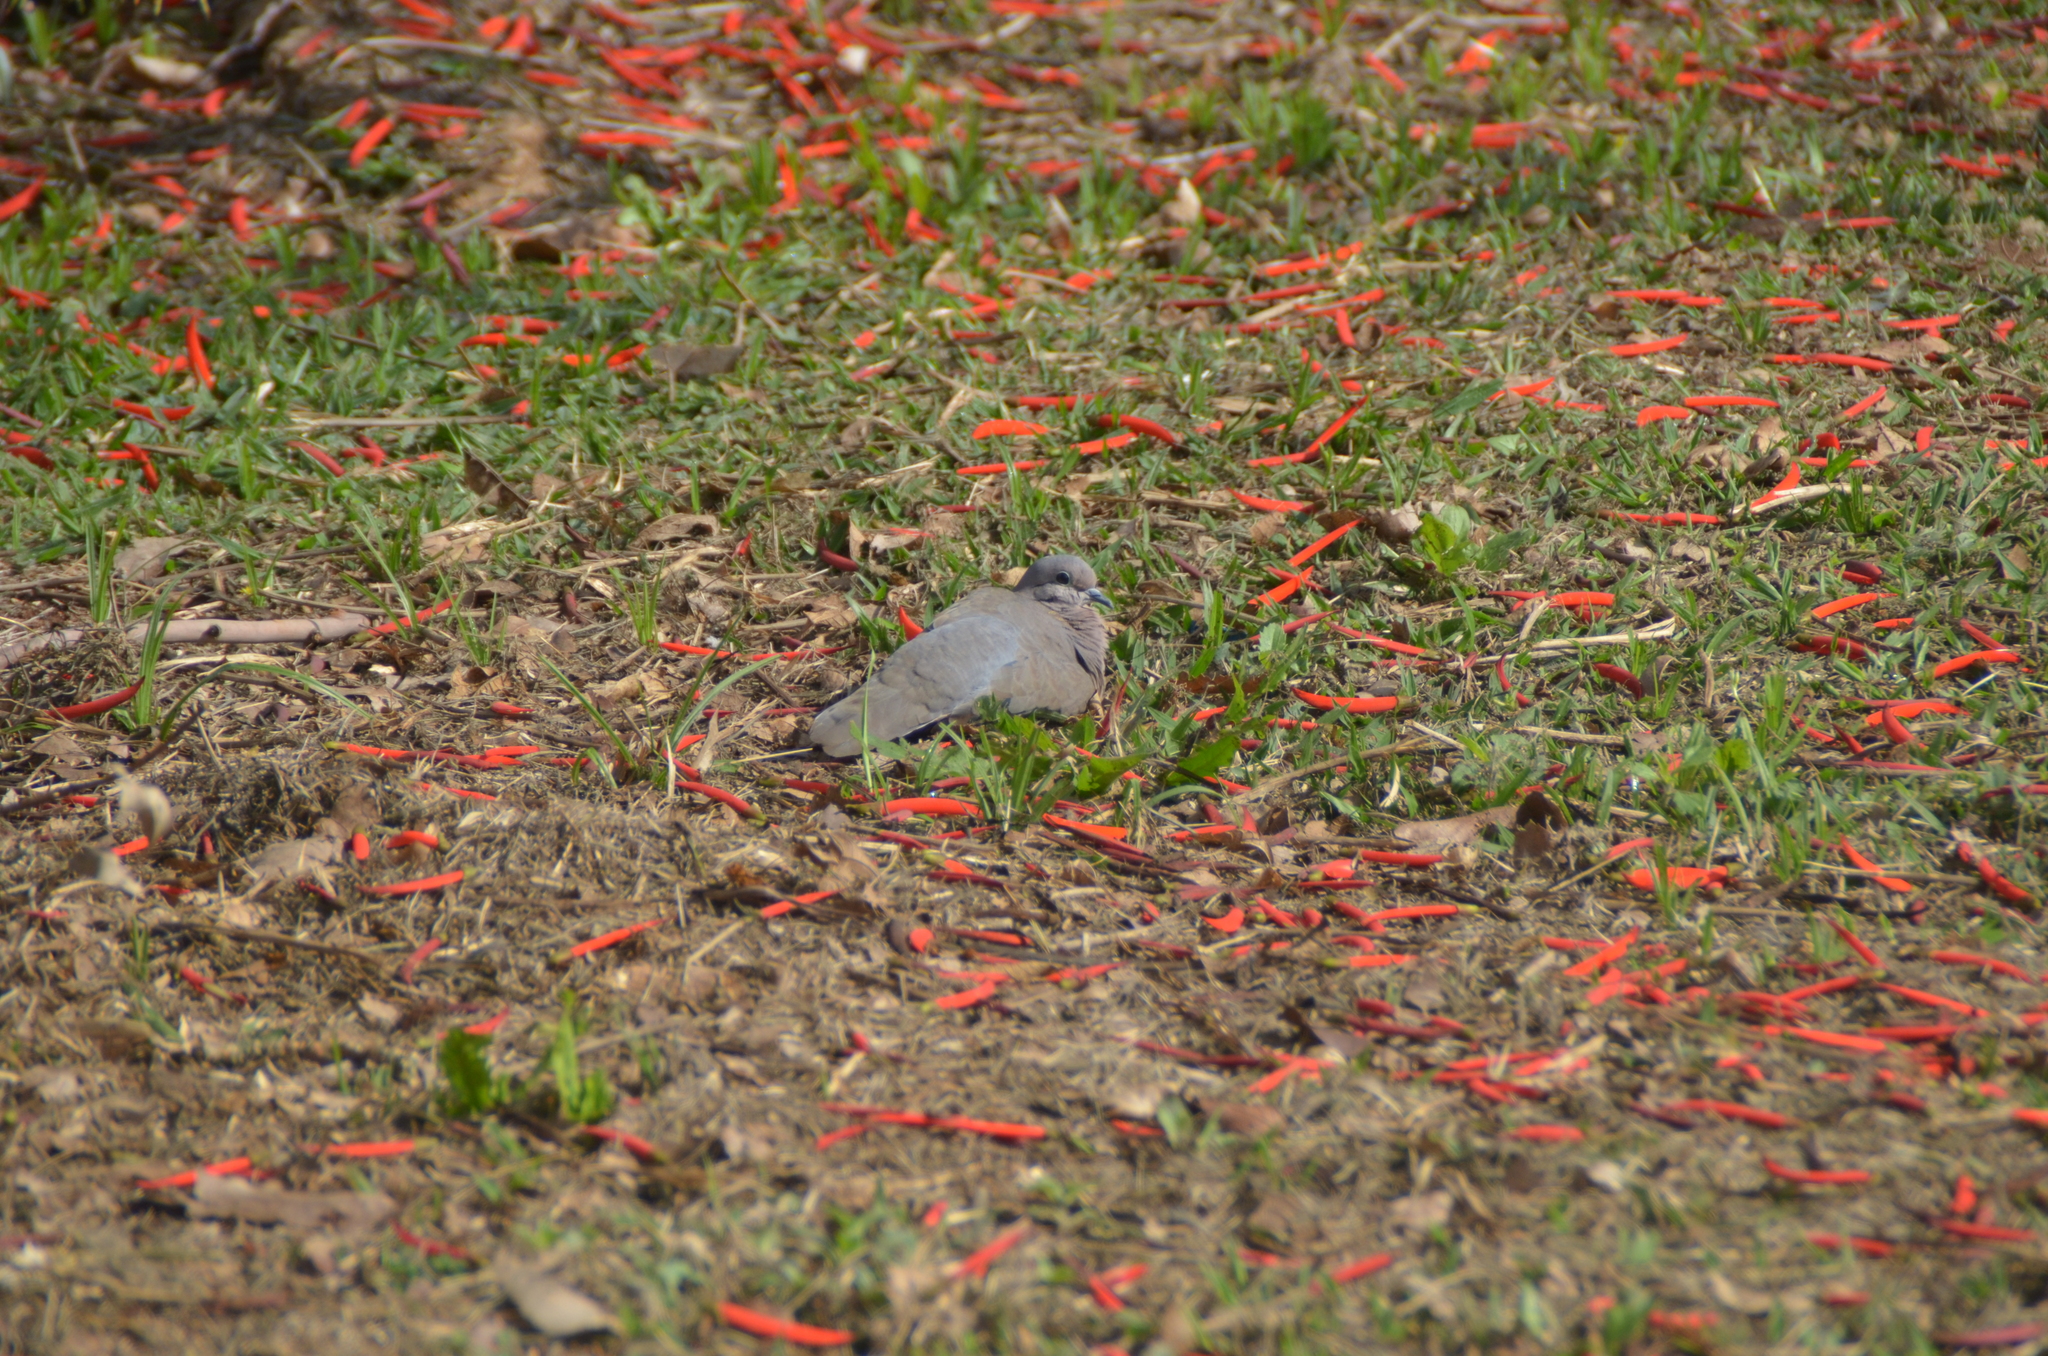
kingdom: Animalia
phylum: Chordata
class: Aves
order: Columbiformes
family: Columbidae
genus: Zenaida
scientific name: Zenaida auriculata
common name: Eared dove
